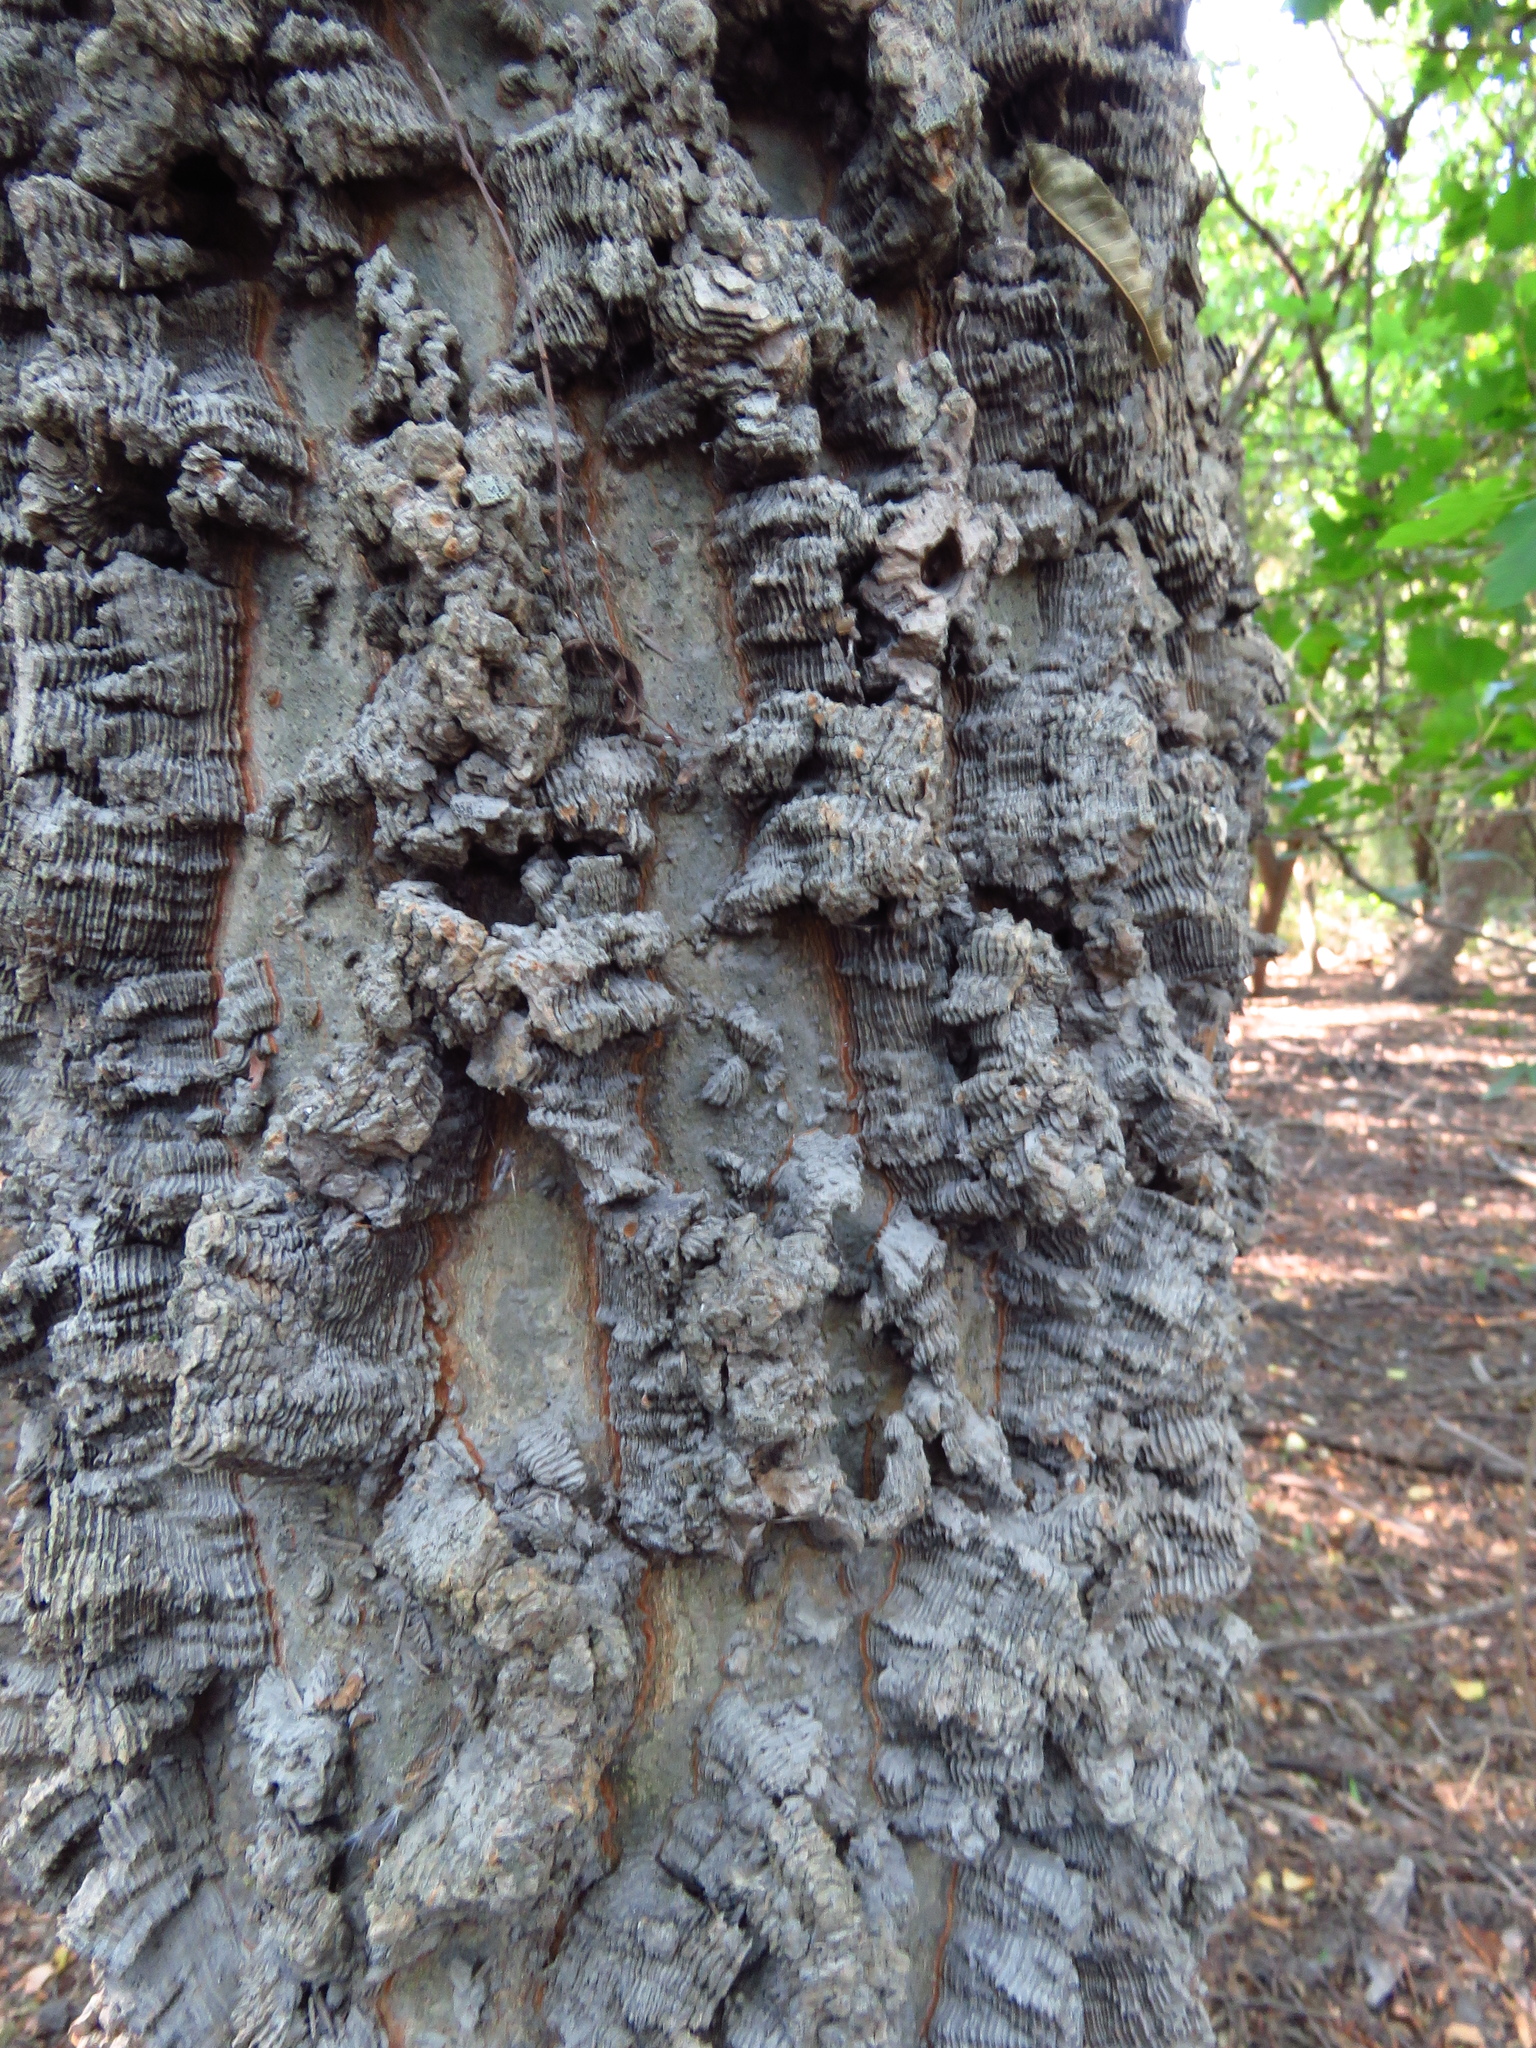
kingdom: Plantae
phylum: Tracheophyta
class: Magnoliopsida
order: Rosales
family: Cannabaceae
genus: Celtis
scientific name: Celtis laevigata
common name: Sugarberry
